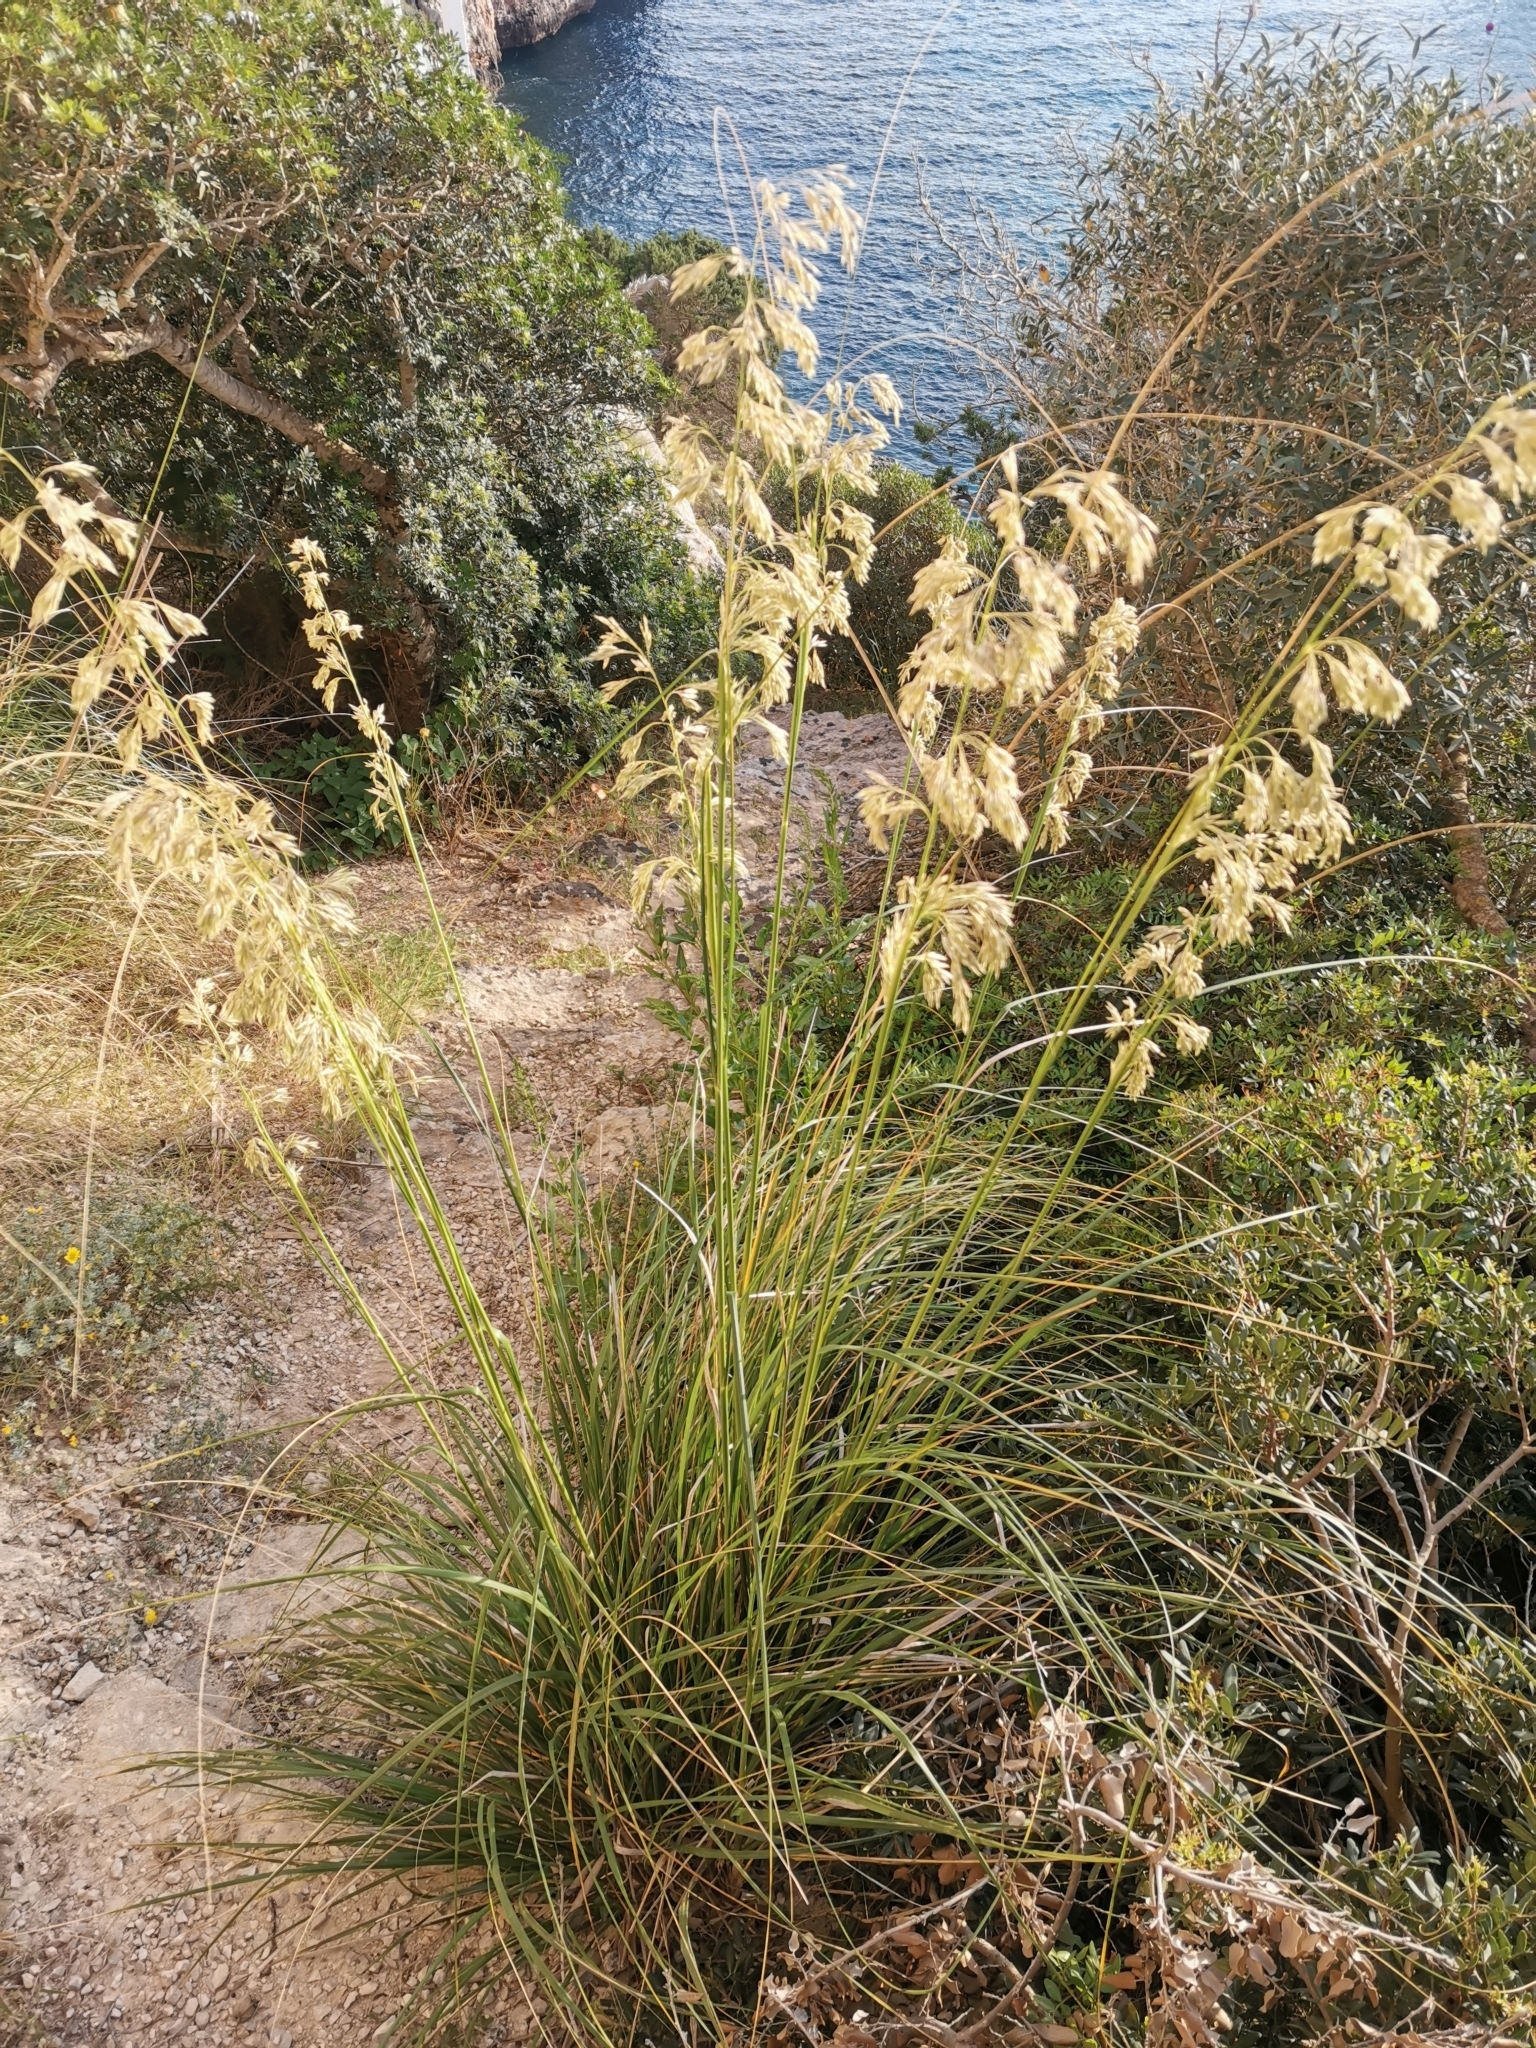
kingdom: Plantae
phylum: Tracheophyta
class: Liliopsida
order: Poales
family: Poaceae
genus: Ampelodesmos
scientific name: Ampelodesmos mauritanicus
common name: Mauritanian grass
